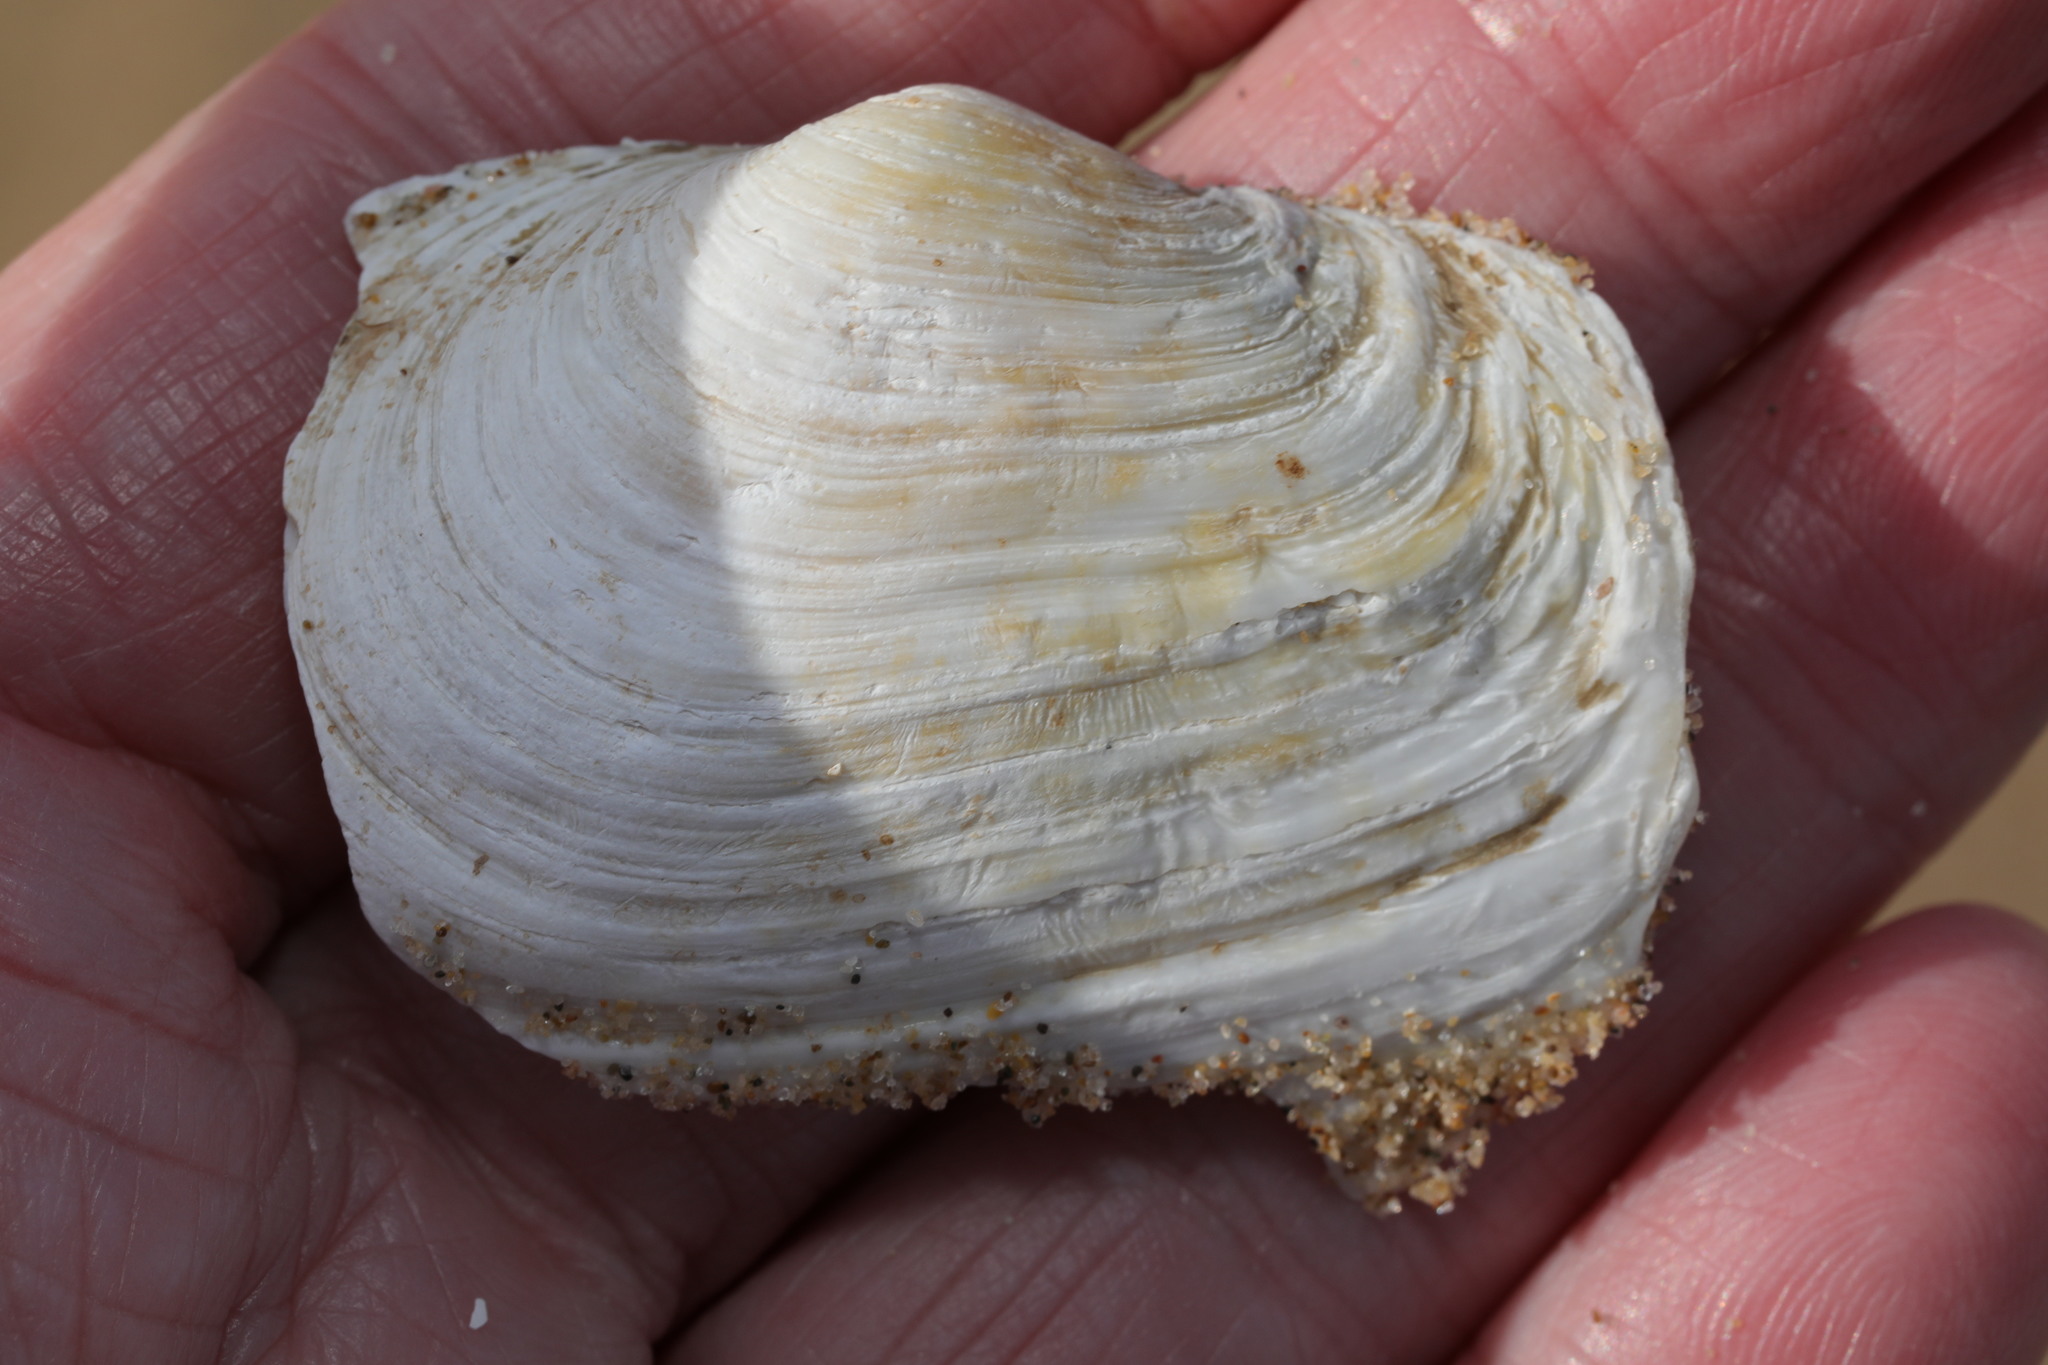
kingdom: Animalia
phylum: Mollusca
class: Bivalvia
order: Myida
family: Myidae
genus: Mya
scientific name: Mya truncata
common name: Blunt gaper
